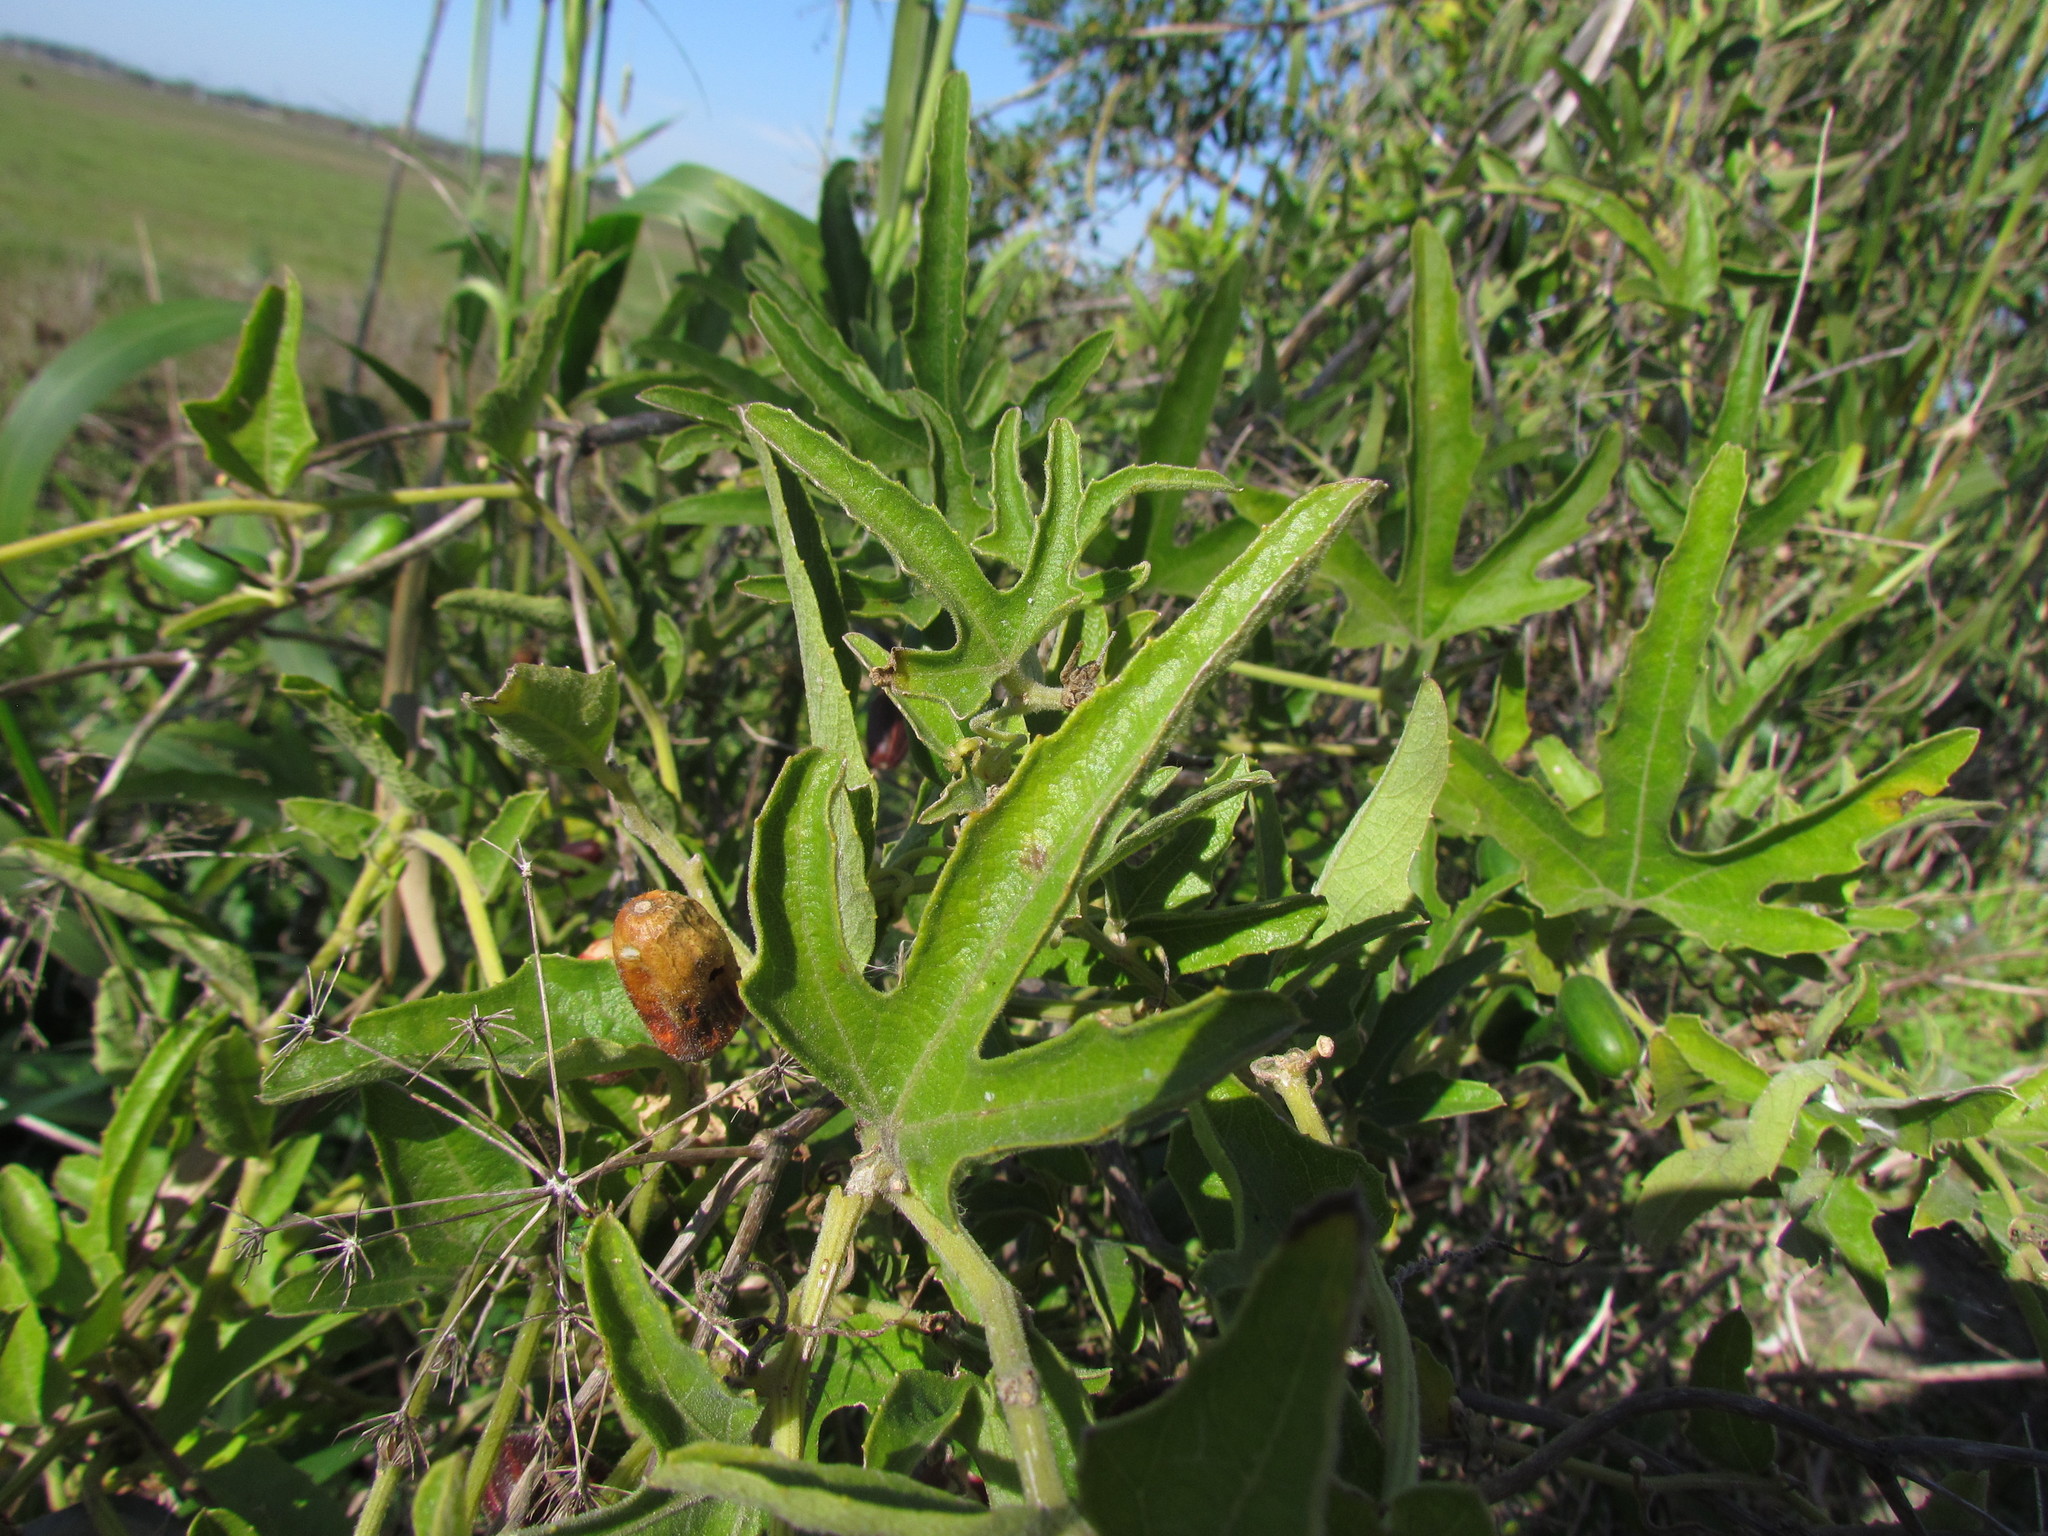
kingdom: Plantae
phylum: Tracheophyta
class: Magnoliopsida
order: Cucurbitales
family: Cucurbitaceae
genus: Cayaponia
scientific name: Cayaponia podantha
